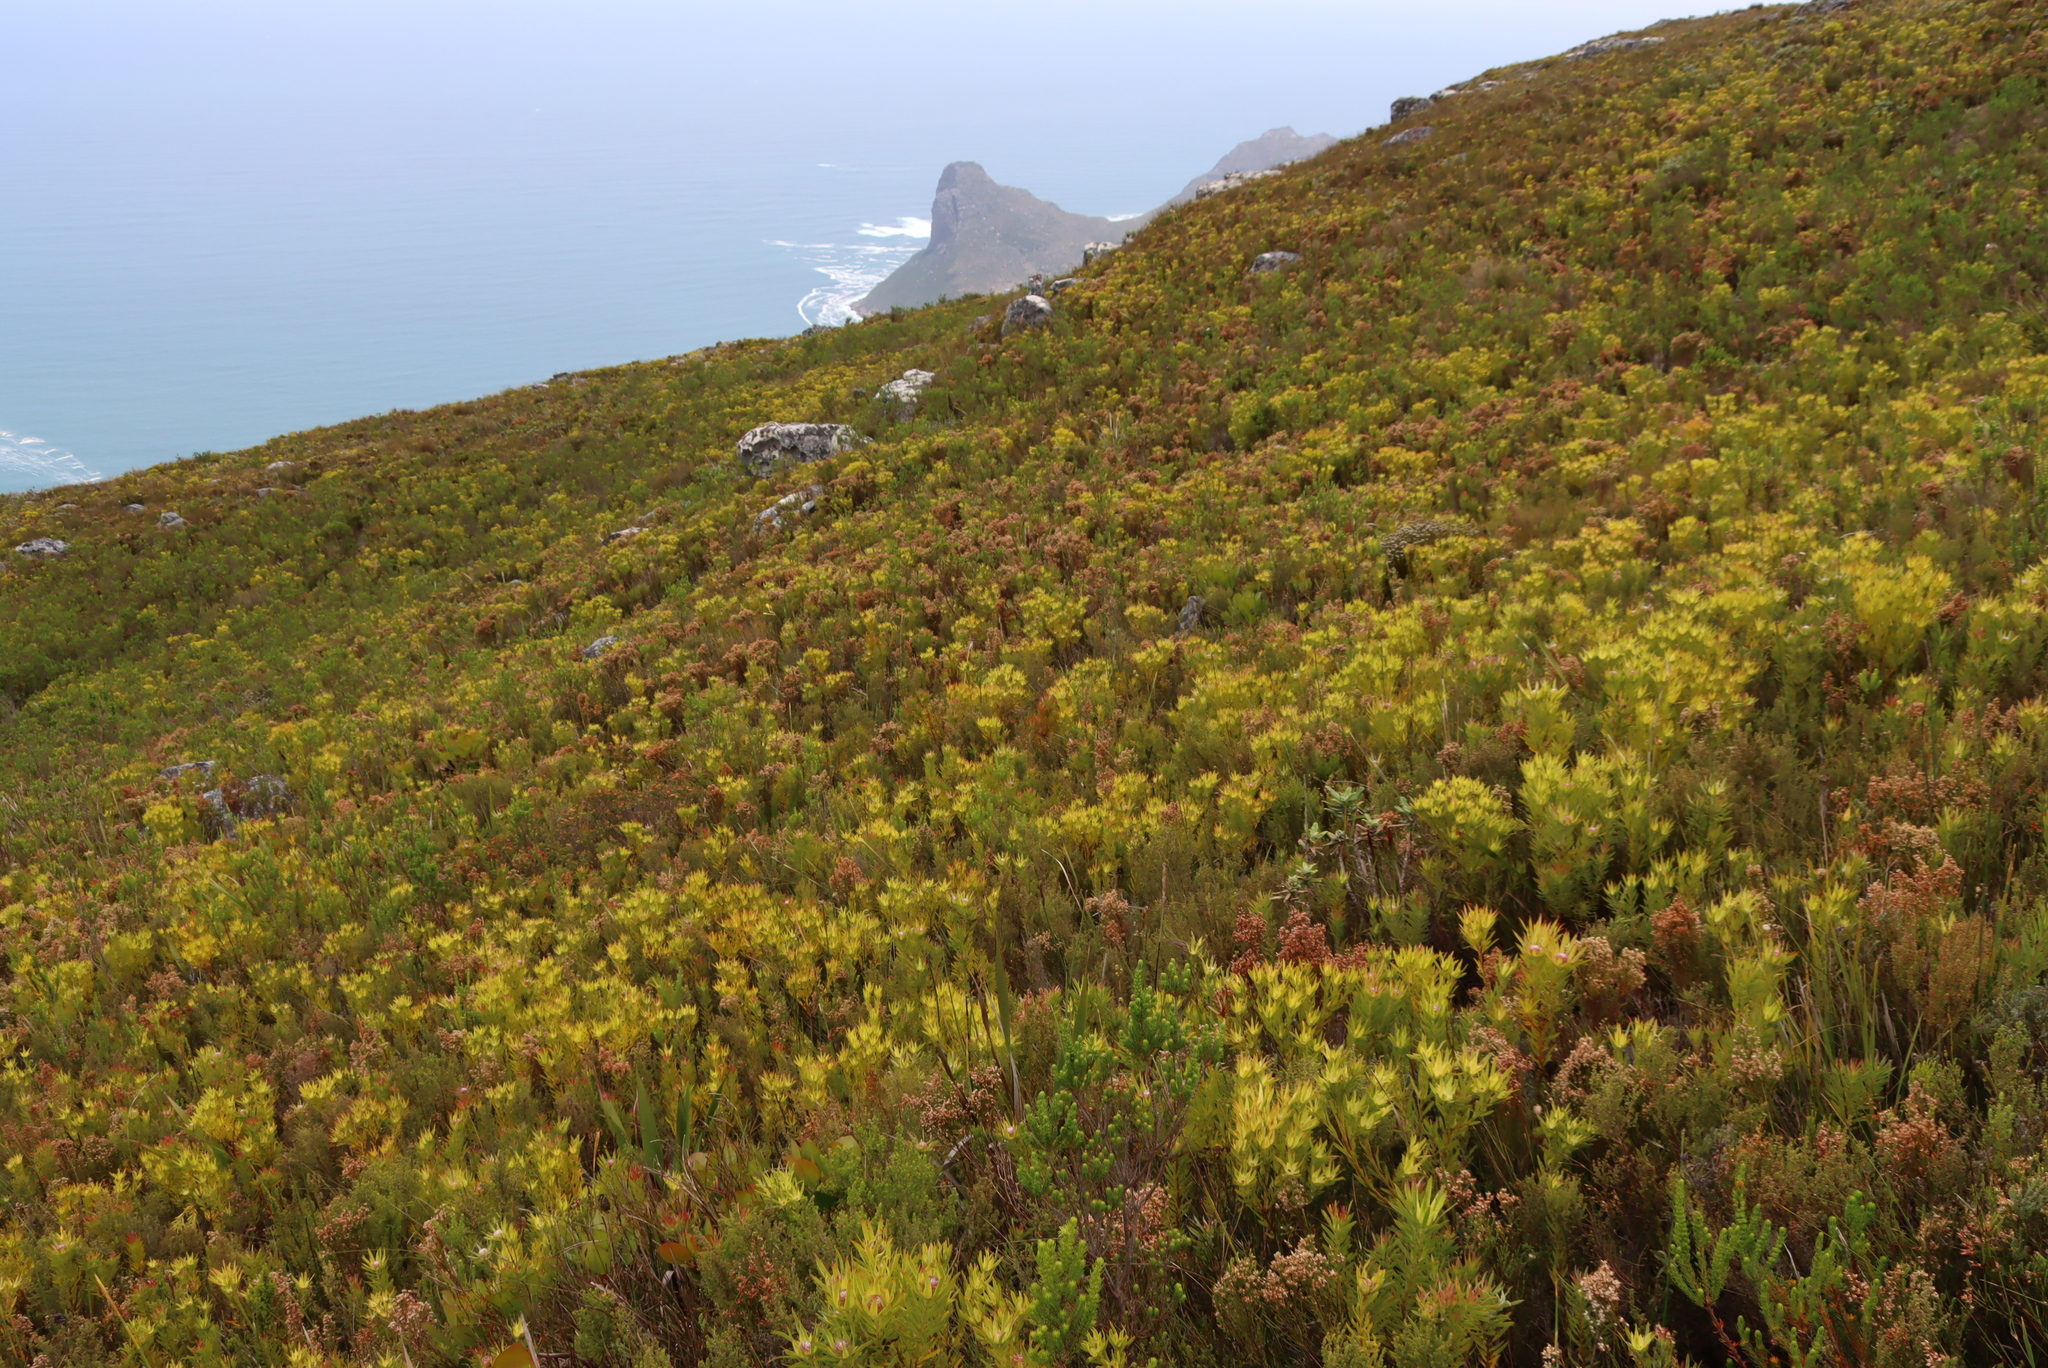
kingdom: Plantae
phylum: Tracheophyta
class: Magnoliopsida
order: Proteales
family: Proteaceae
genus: Leucadendron
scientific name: Leucadendron xanthoconus
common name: Sickle-leaf conebush
